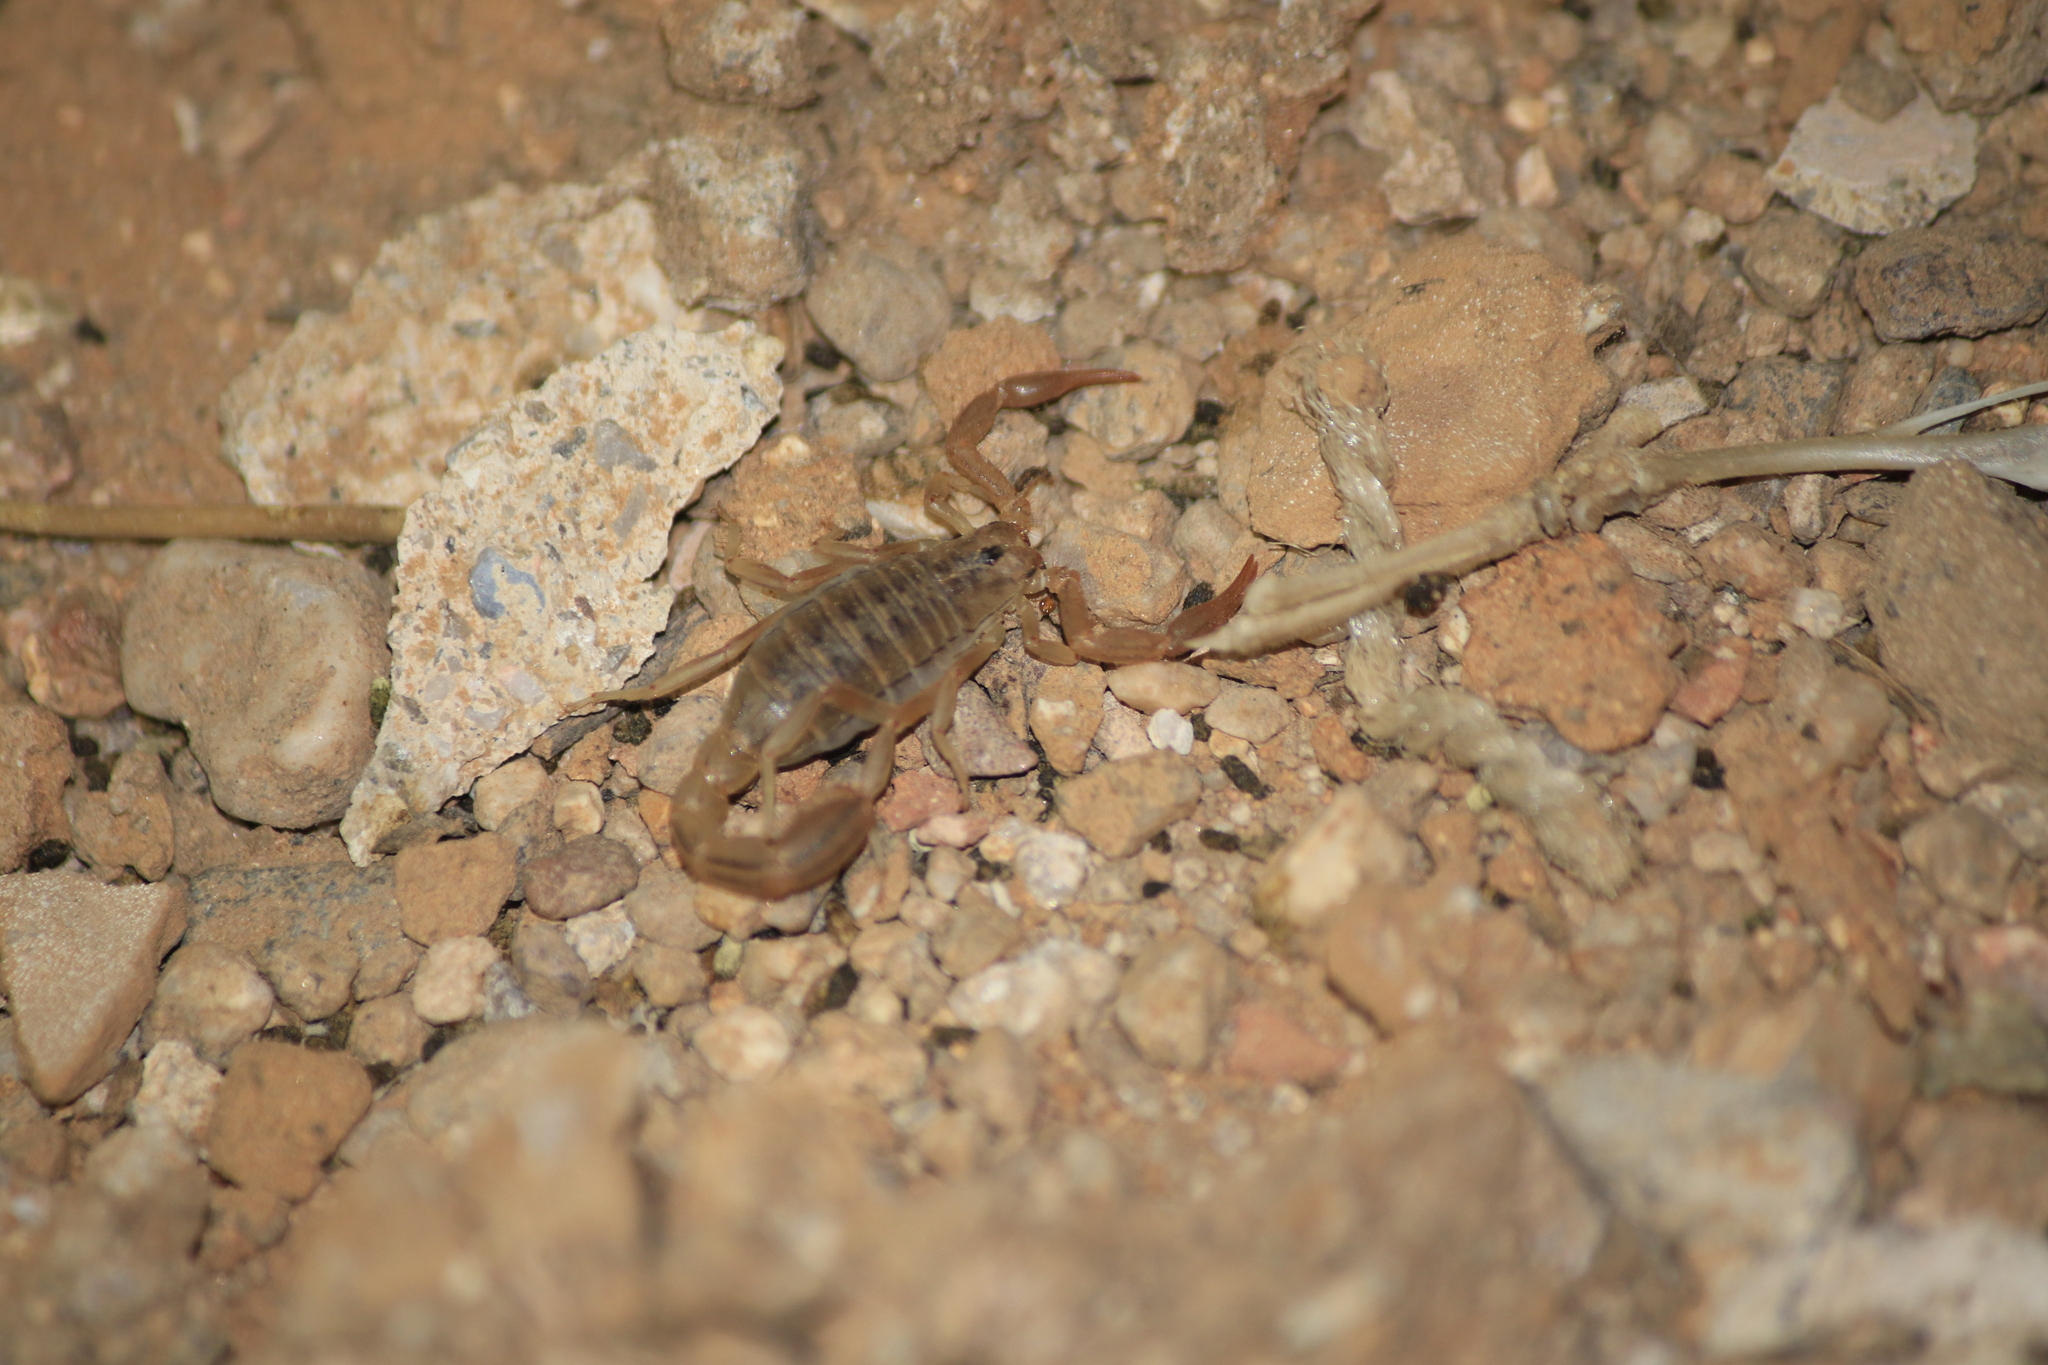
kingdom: Animalia
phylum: Arthropoda
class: Arachnida
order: Scorpiones
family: Vaejovidae
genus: Paravaejovis
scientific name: Paravaejovis spinigerus
